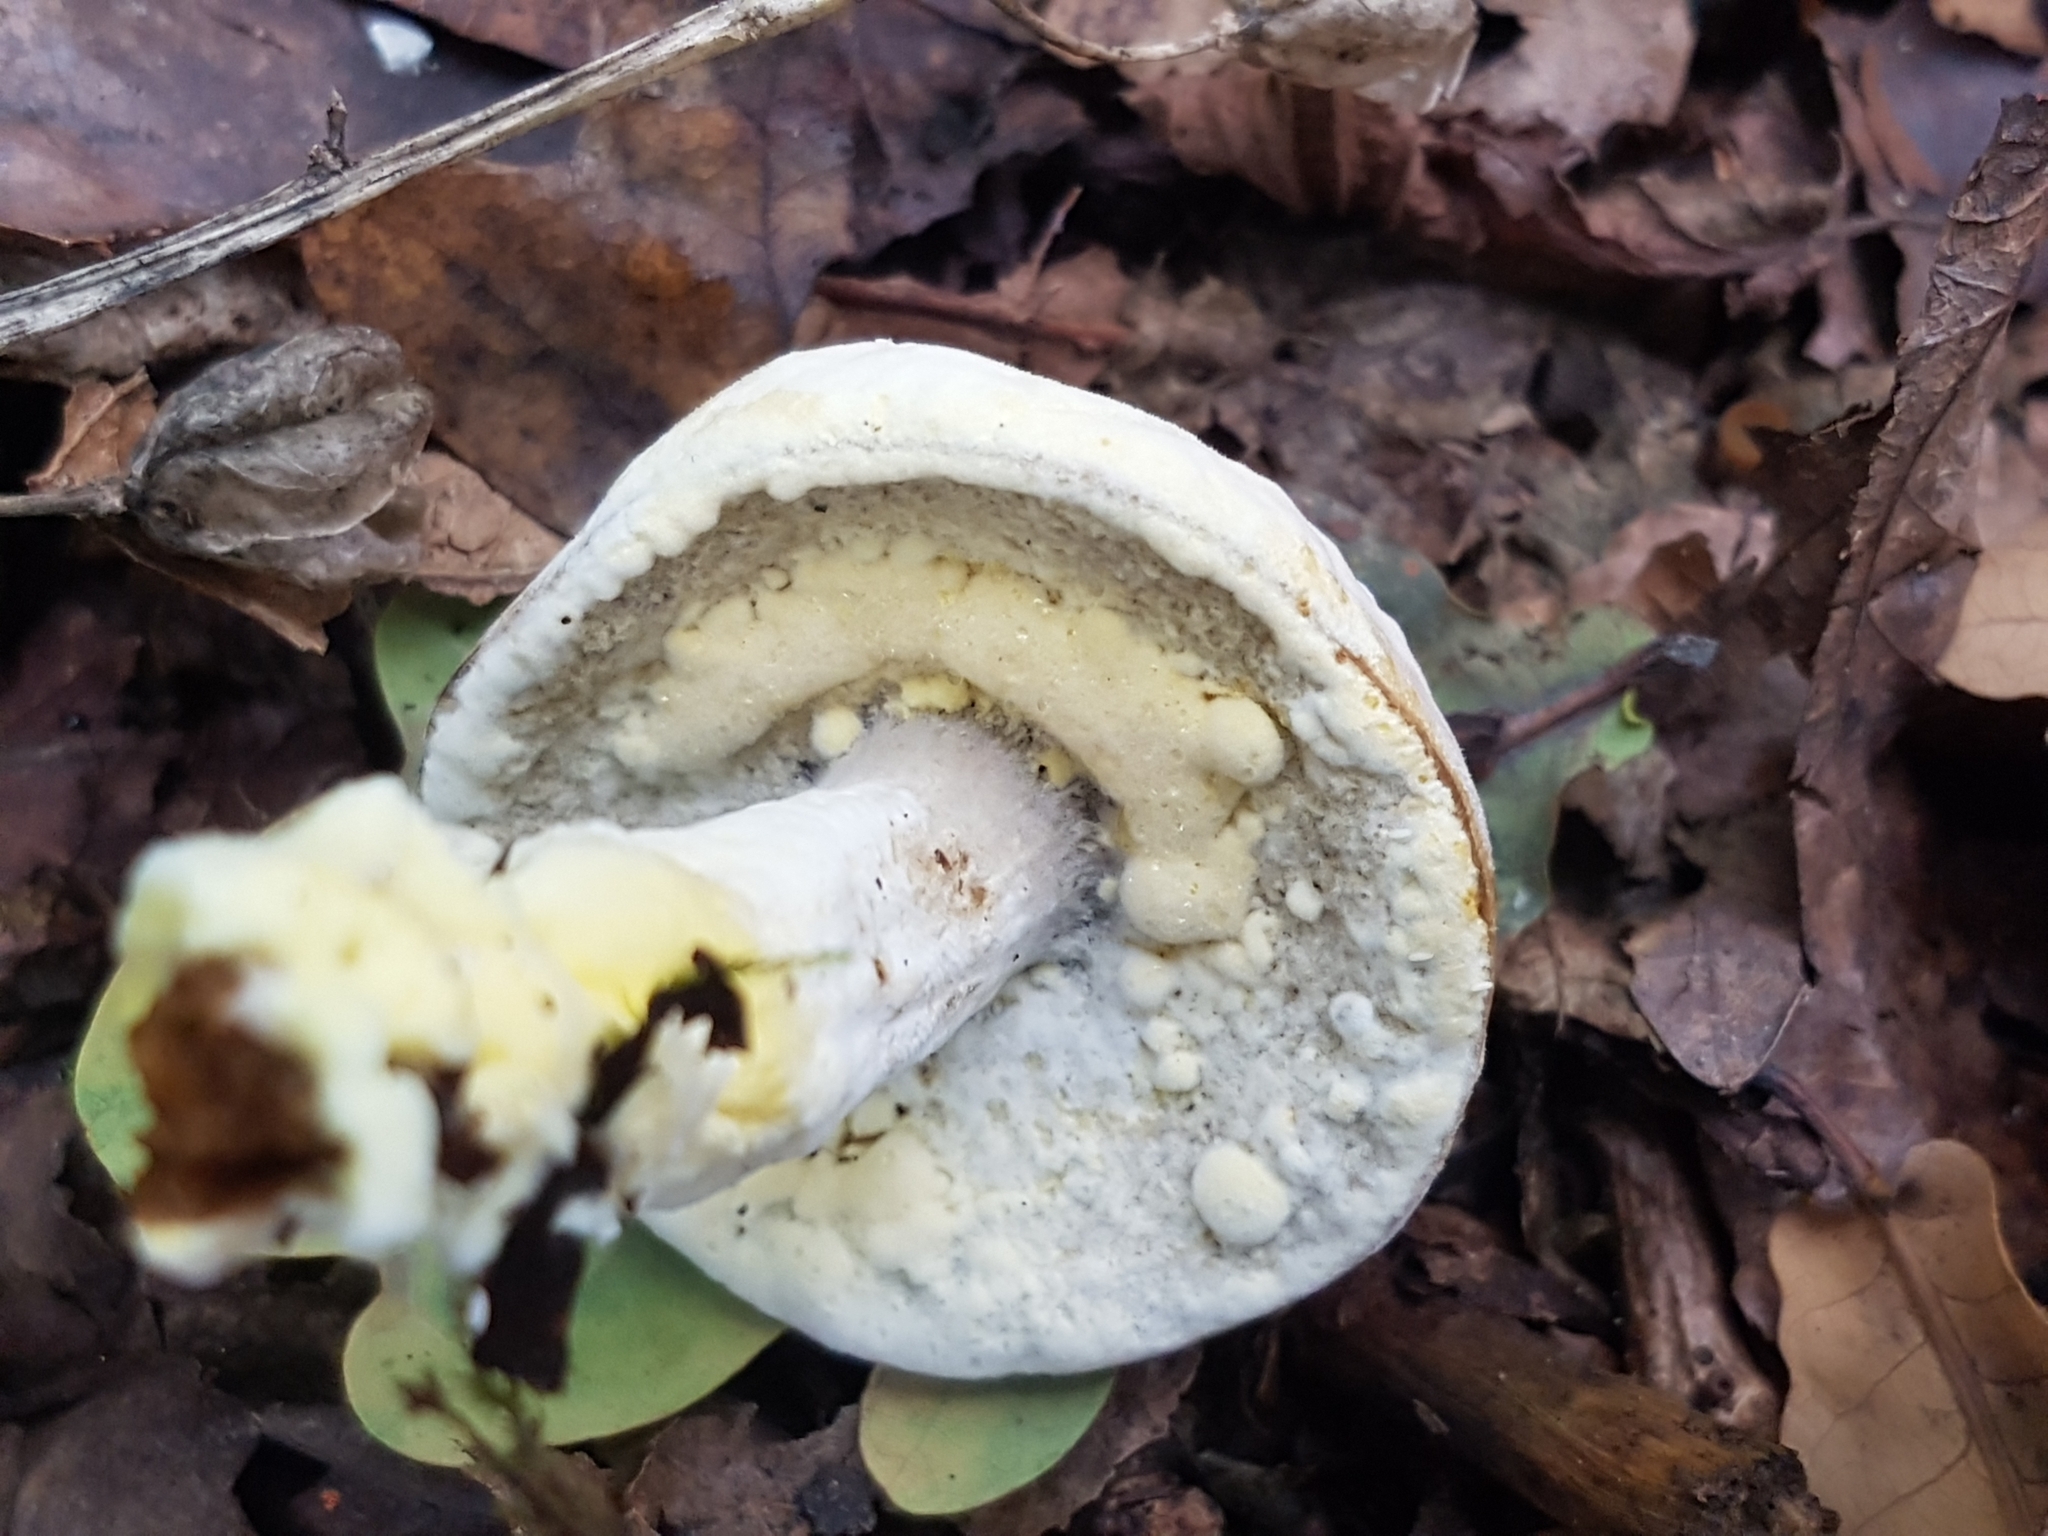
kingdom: Fungi
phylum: Ascomycota
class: Sordariomycetes
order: Hypocreales
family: Hypocreaceae
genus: Hypomyces
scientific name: Hypomyces chrysospermus
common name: Bolete mould
